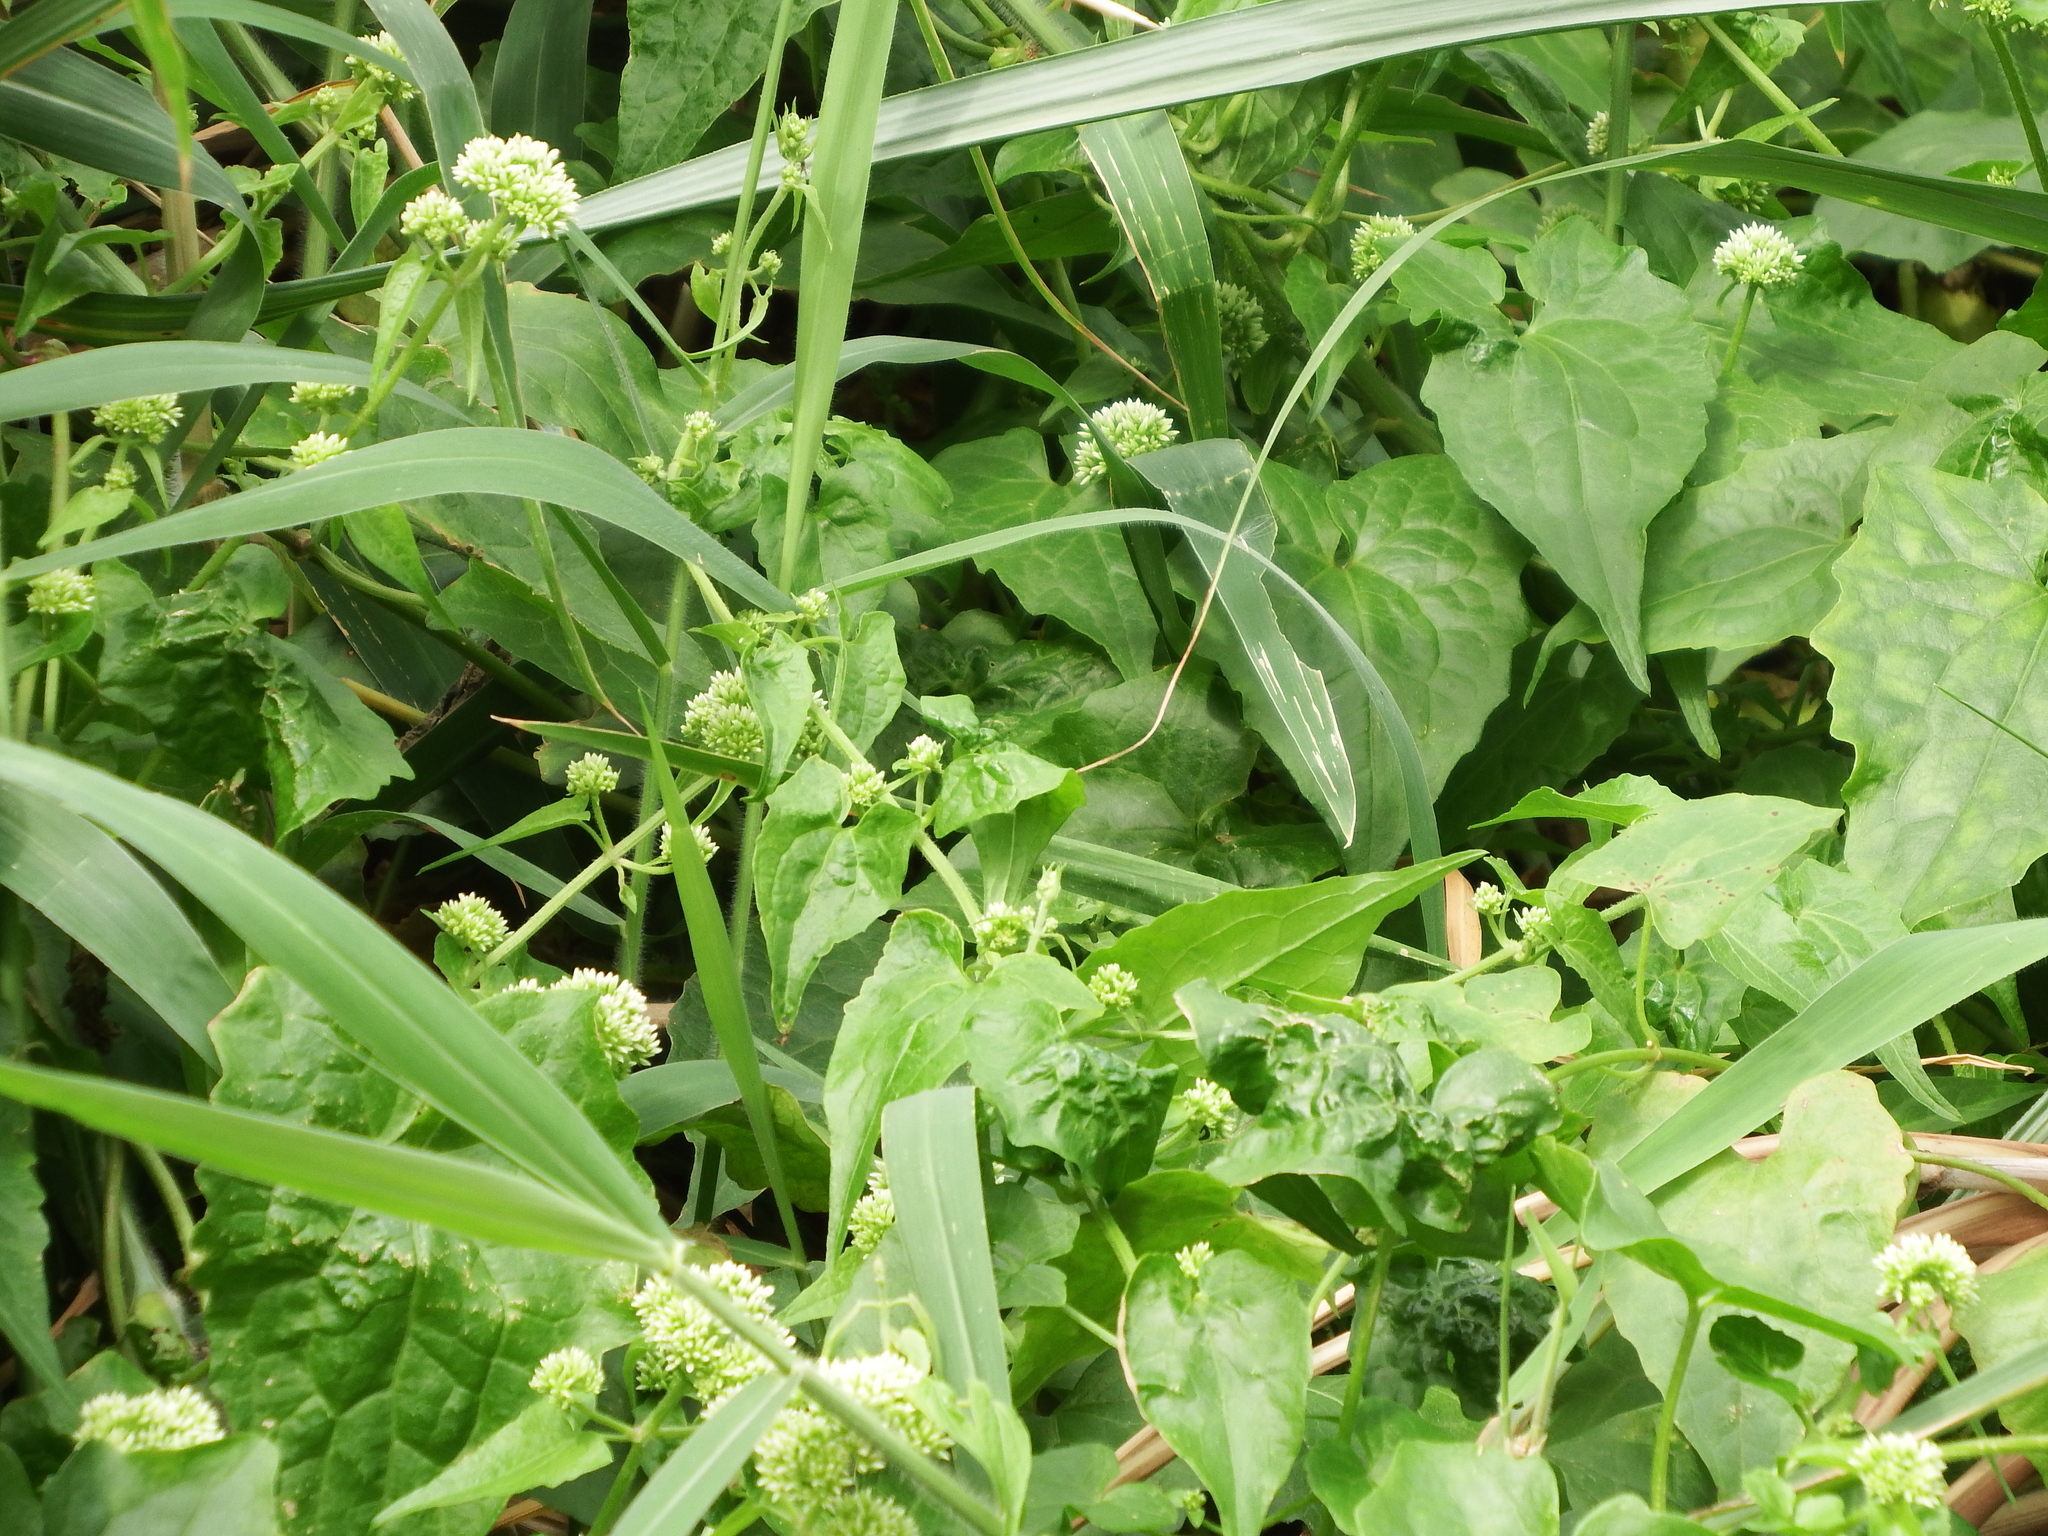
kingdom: Plantae
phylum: Tracheophyta
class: Magnoliopsida
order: Asterales
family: Asteraceae
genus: Mikania
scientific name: Mikania micrantha
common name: Mile-a-minute
